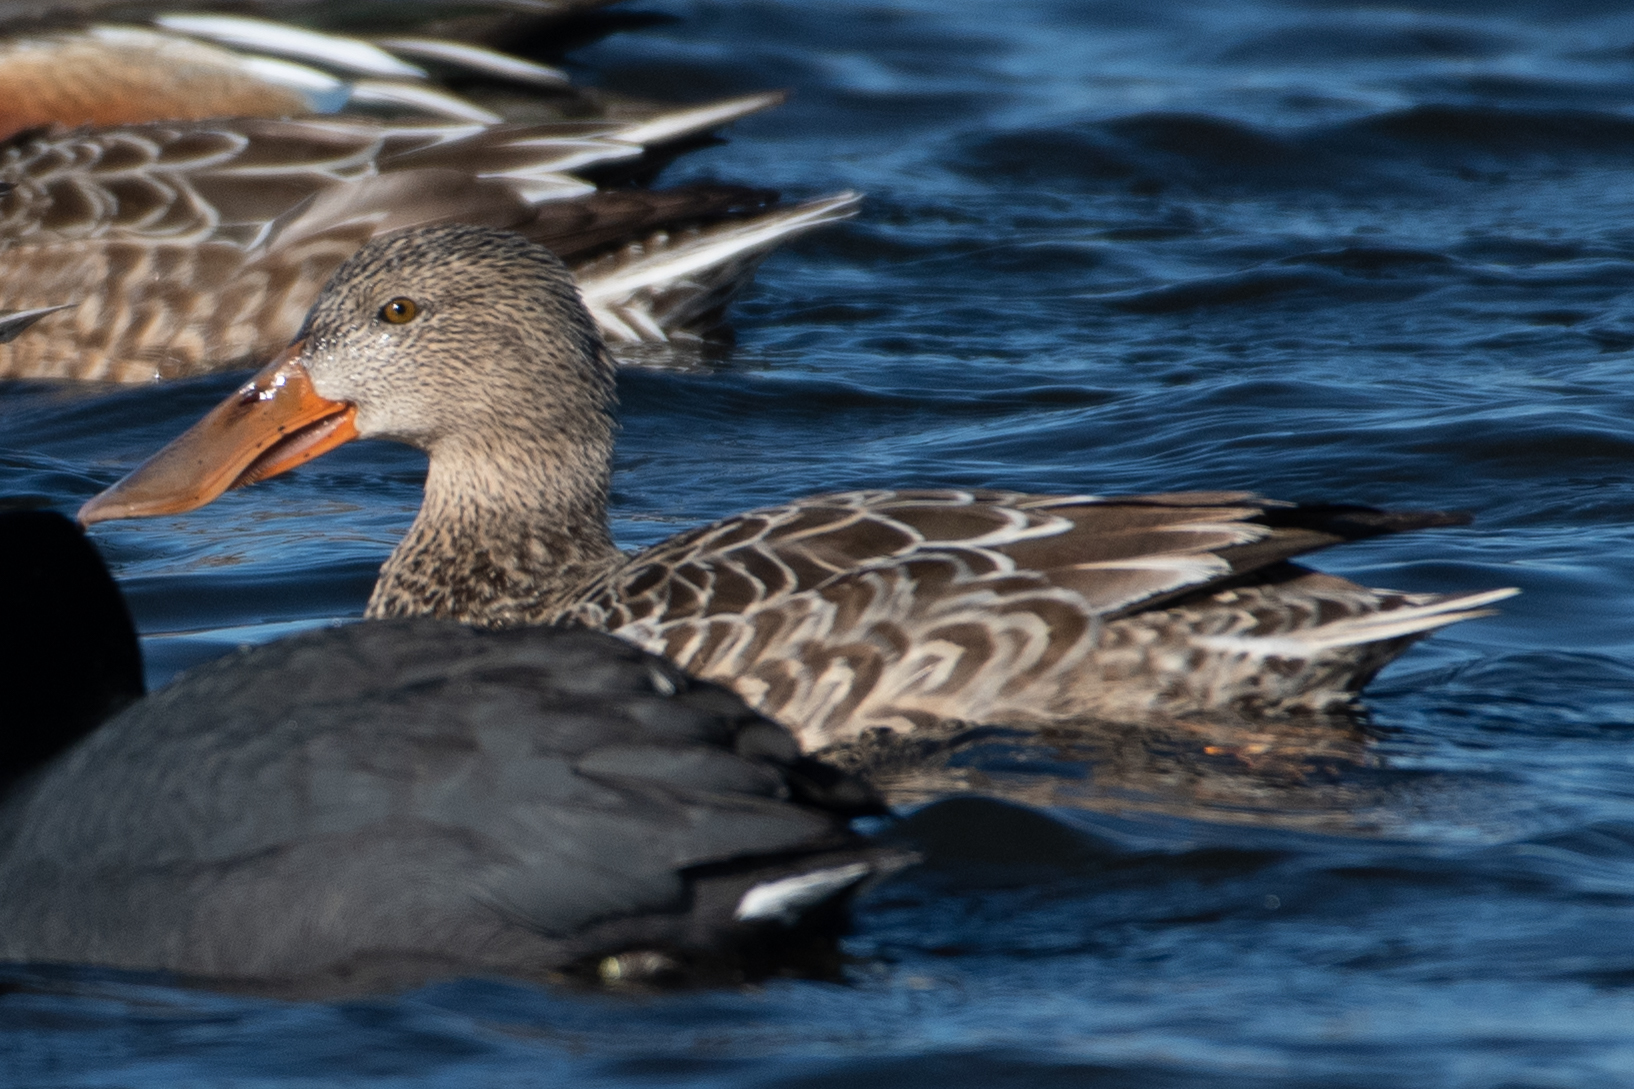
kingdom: Animalia
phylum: Chordata
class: Aves
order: Anseriformes
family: Anatidae
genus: Spatula
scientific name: Spatula clypeata
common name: Northern shoveler
